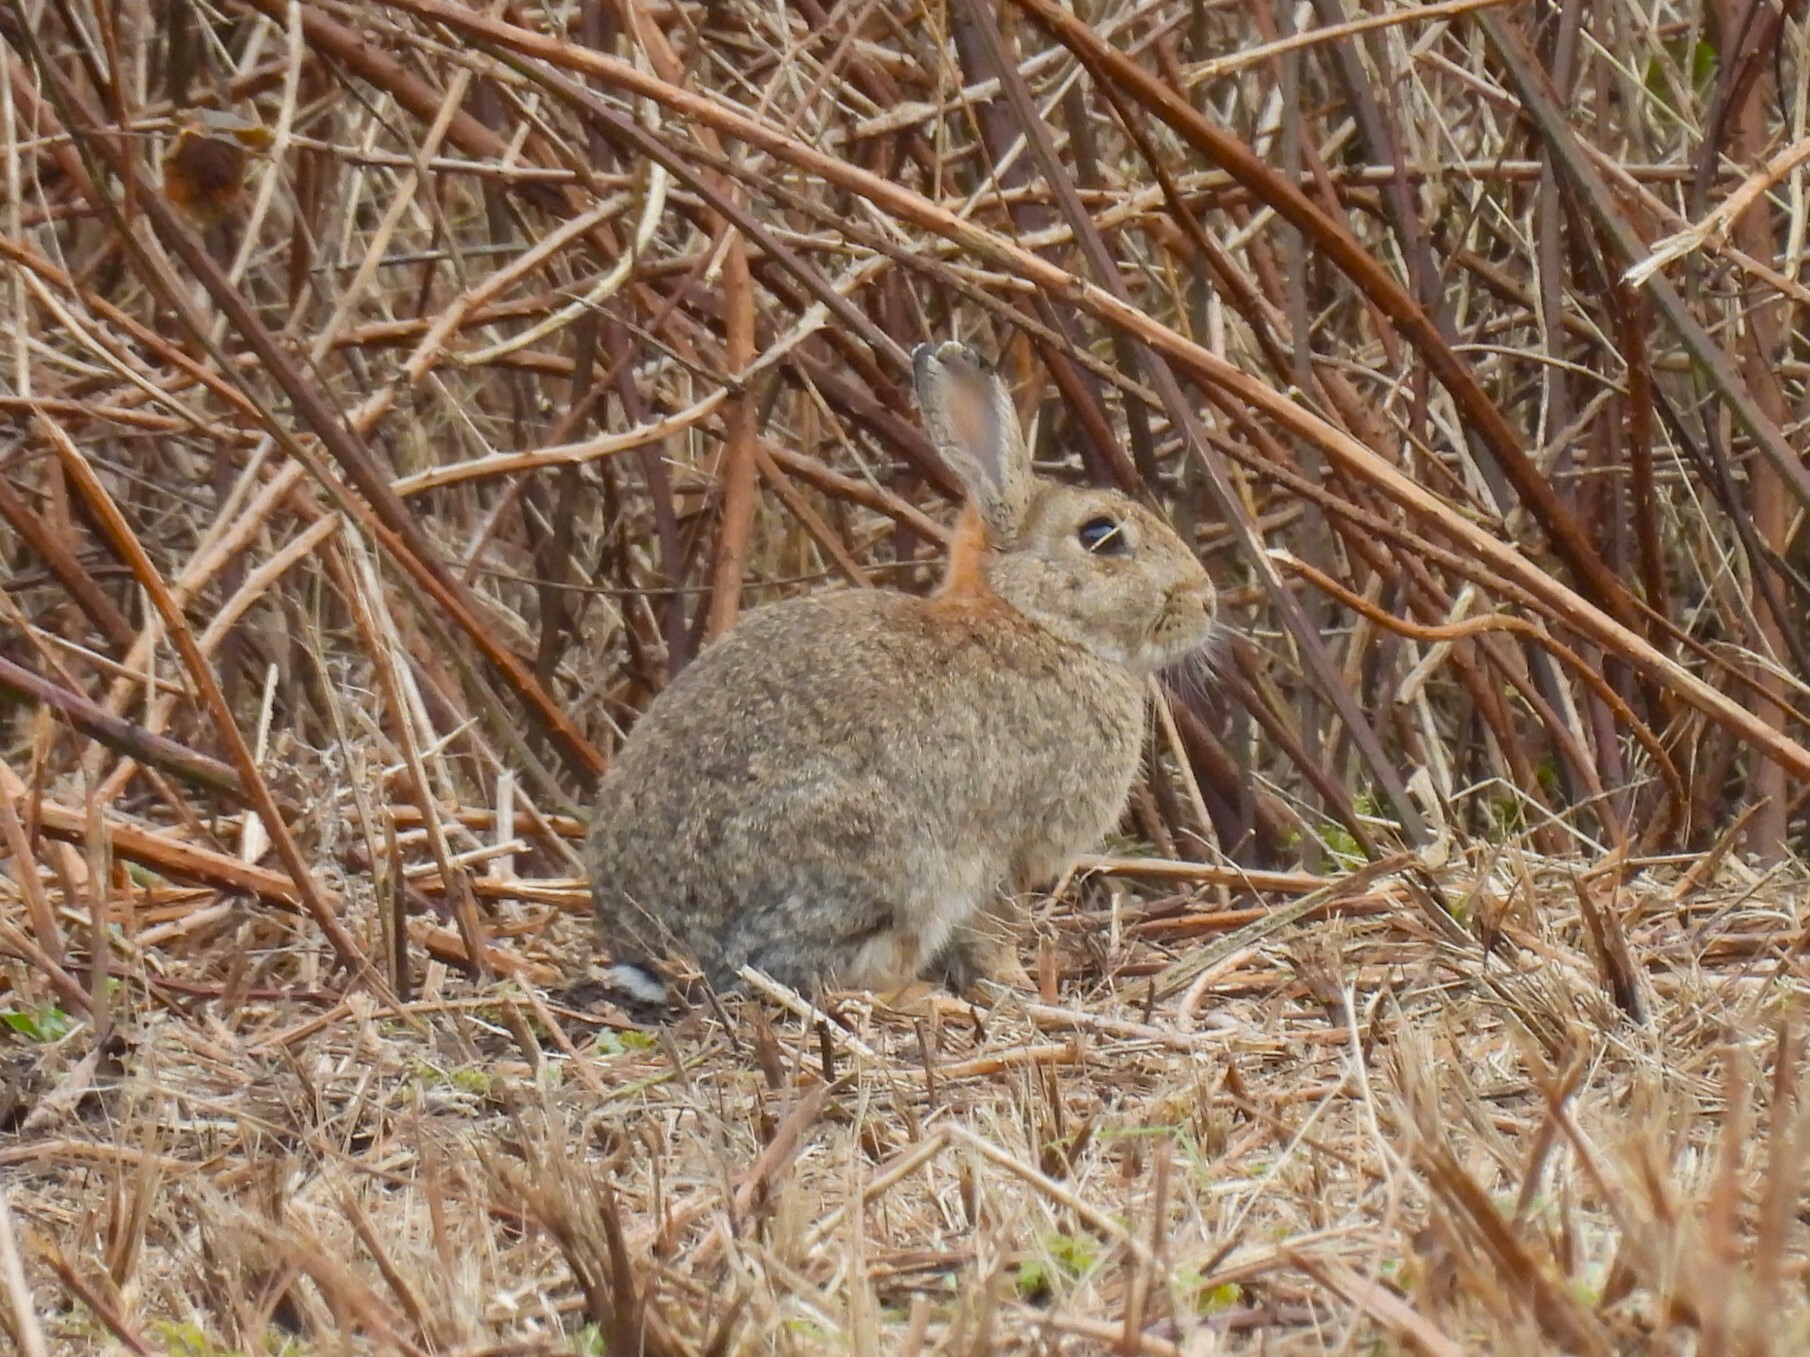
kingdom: Animalia
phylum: Chordata
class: Mammalia
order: Lagomorpha
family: Leporidae
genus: Oryctolagus
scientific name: Oryctolagus cuniculus
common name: European rabbit
